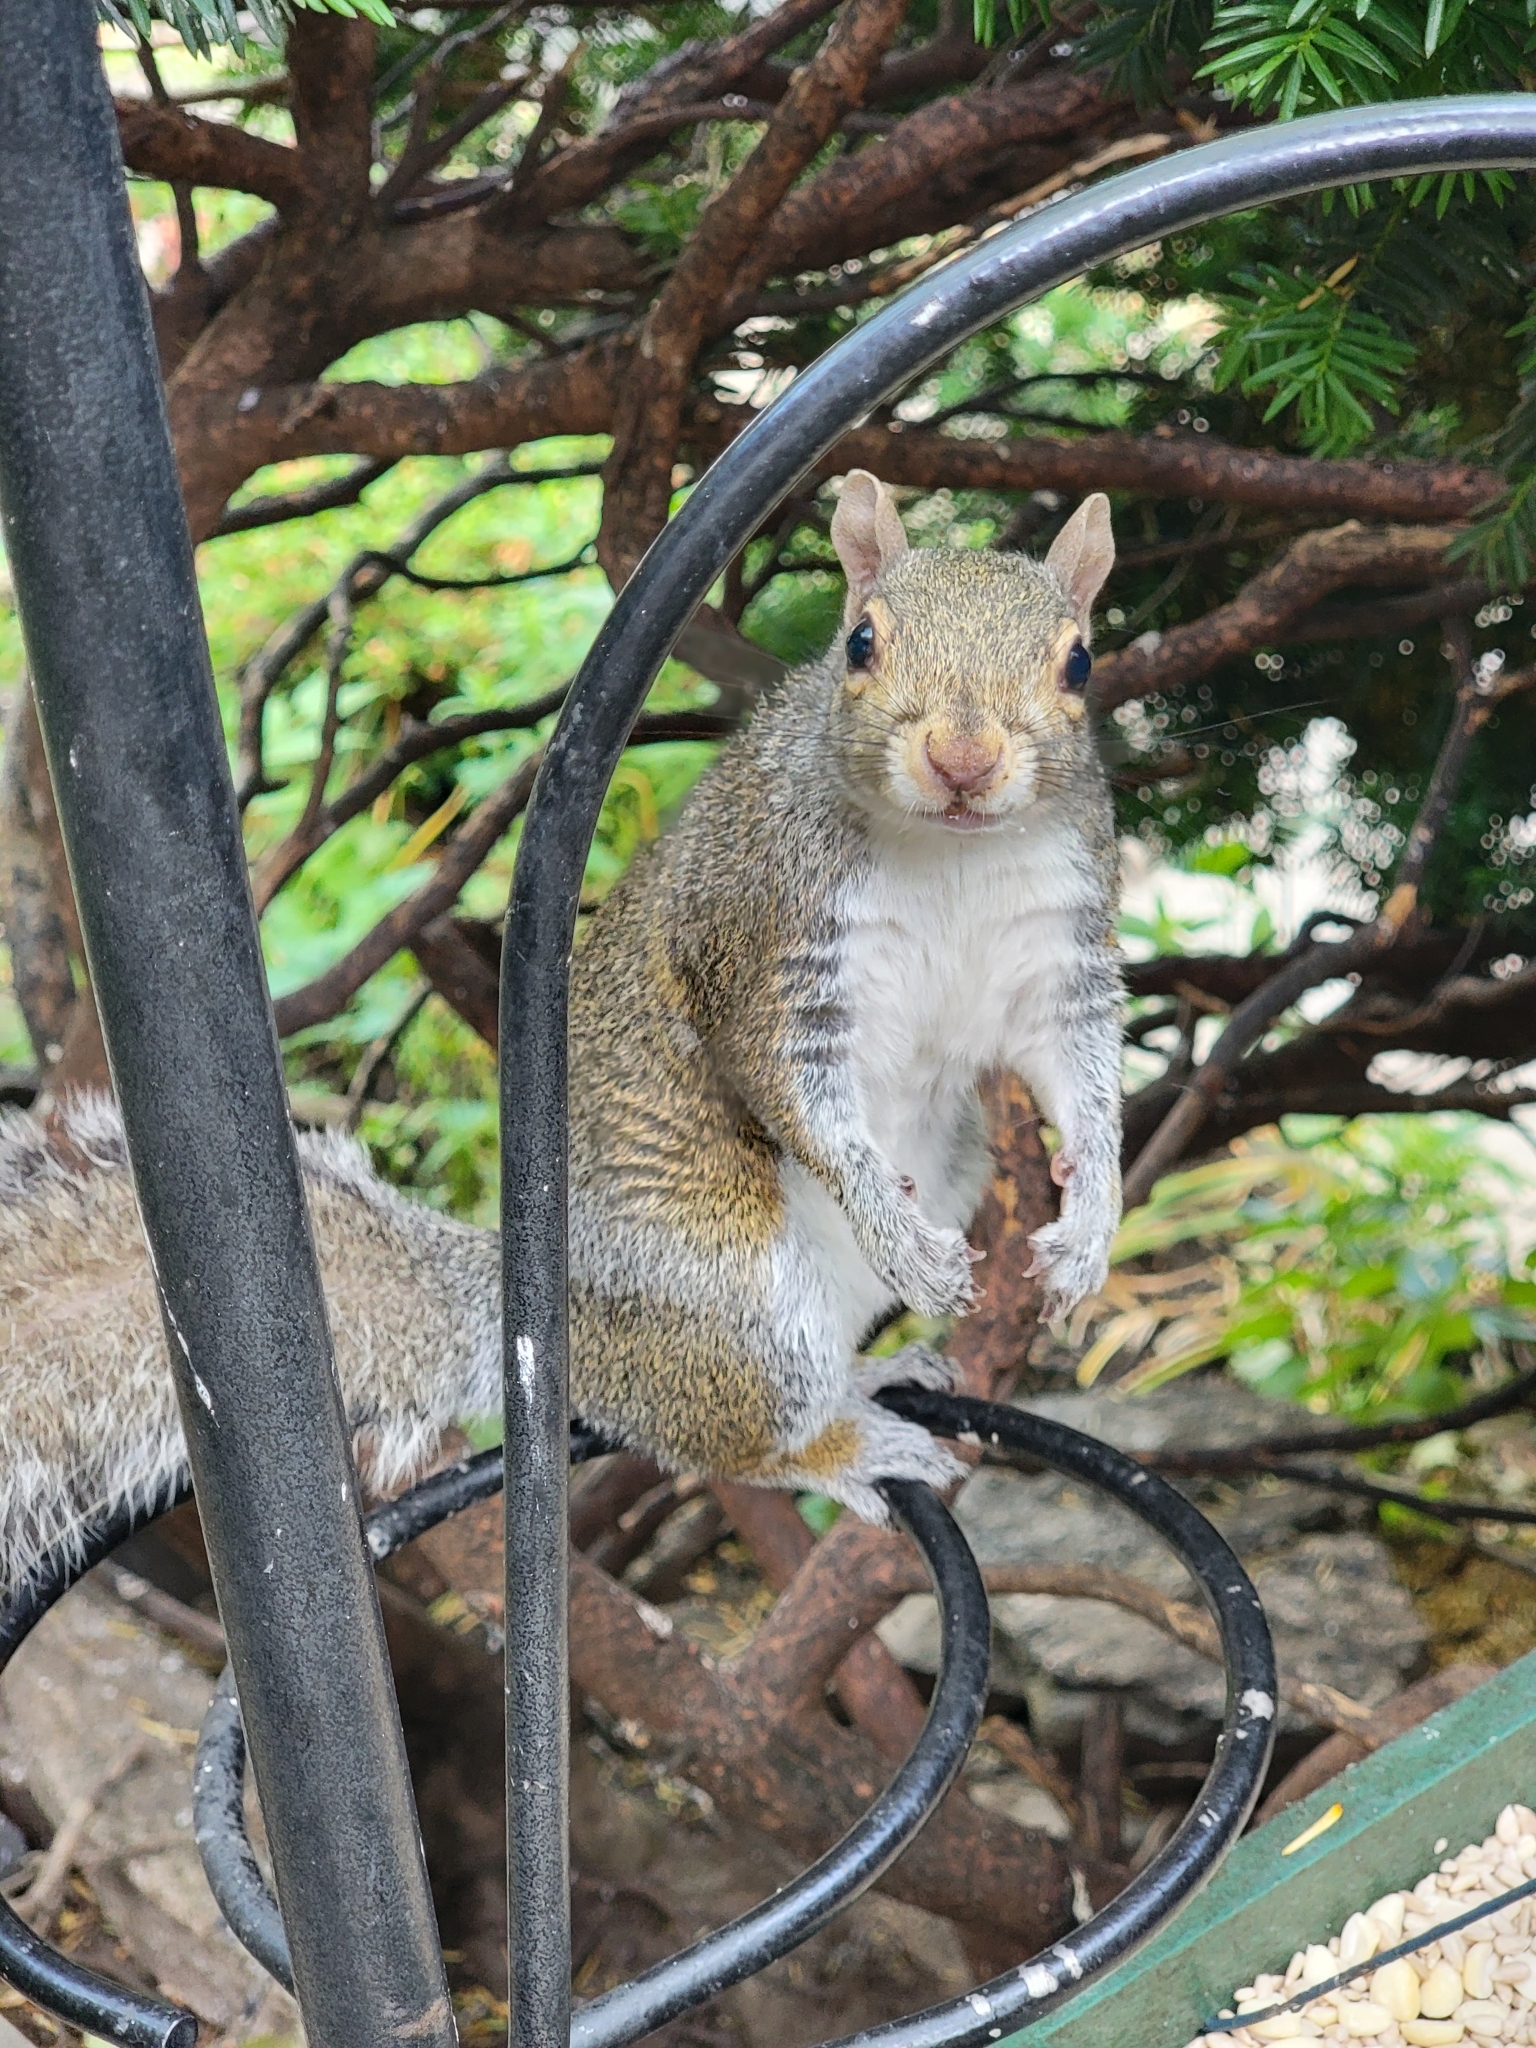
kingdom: Animalia
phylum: Chordata
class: Mammalia
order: Rodentia
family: Sciuridae
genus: Sciurus
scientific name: Sciurus carolinensis
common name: Eastern gray squirrel
